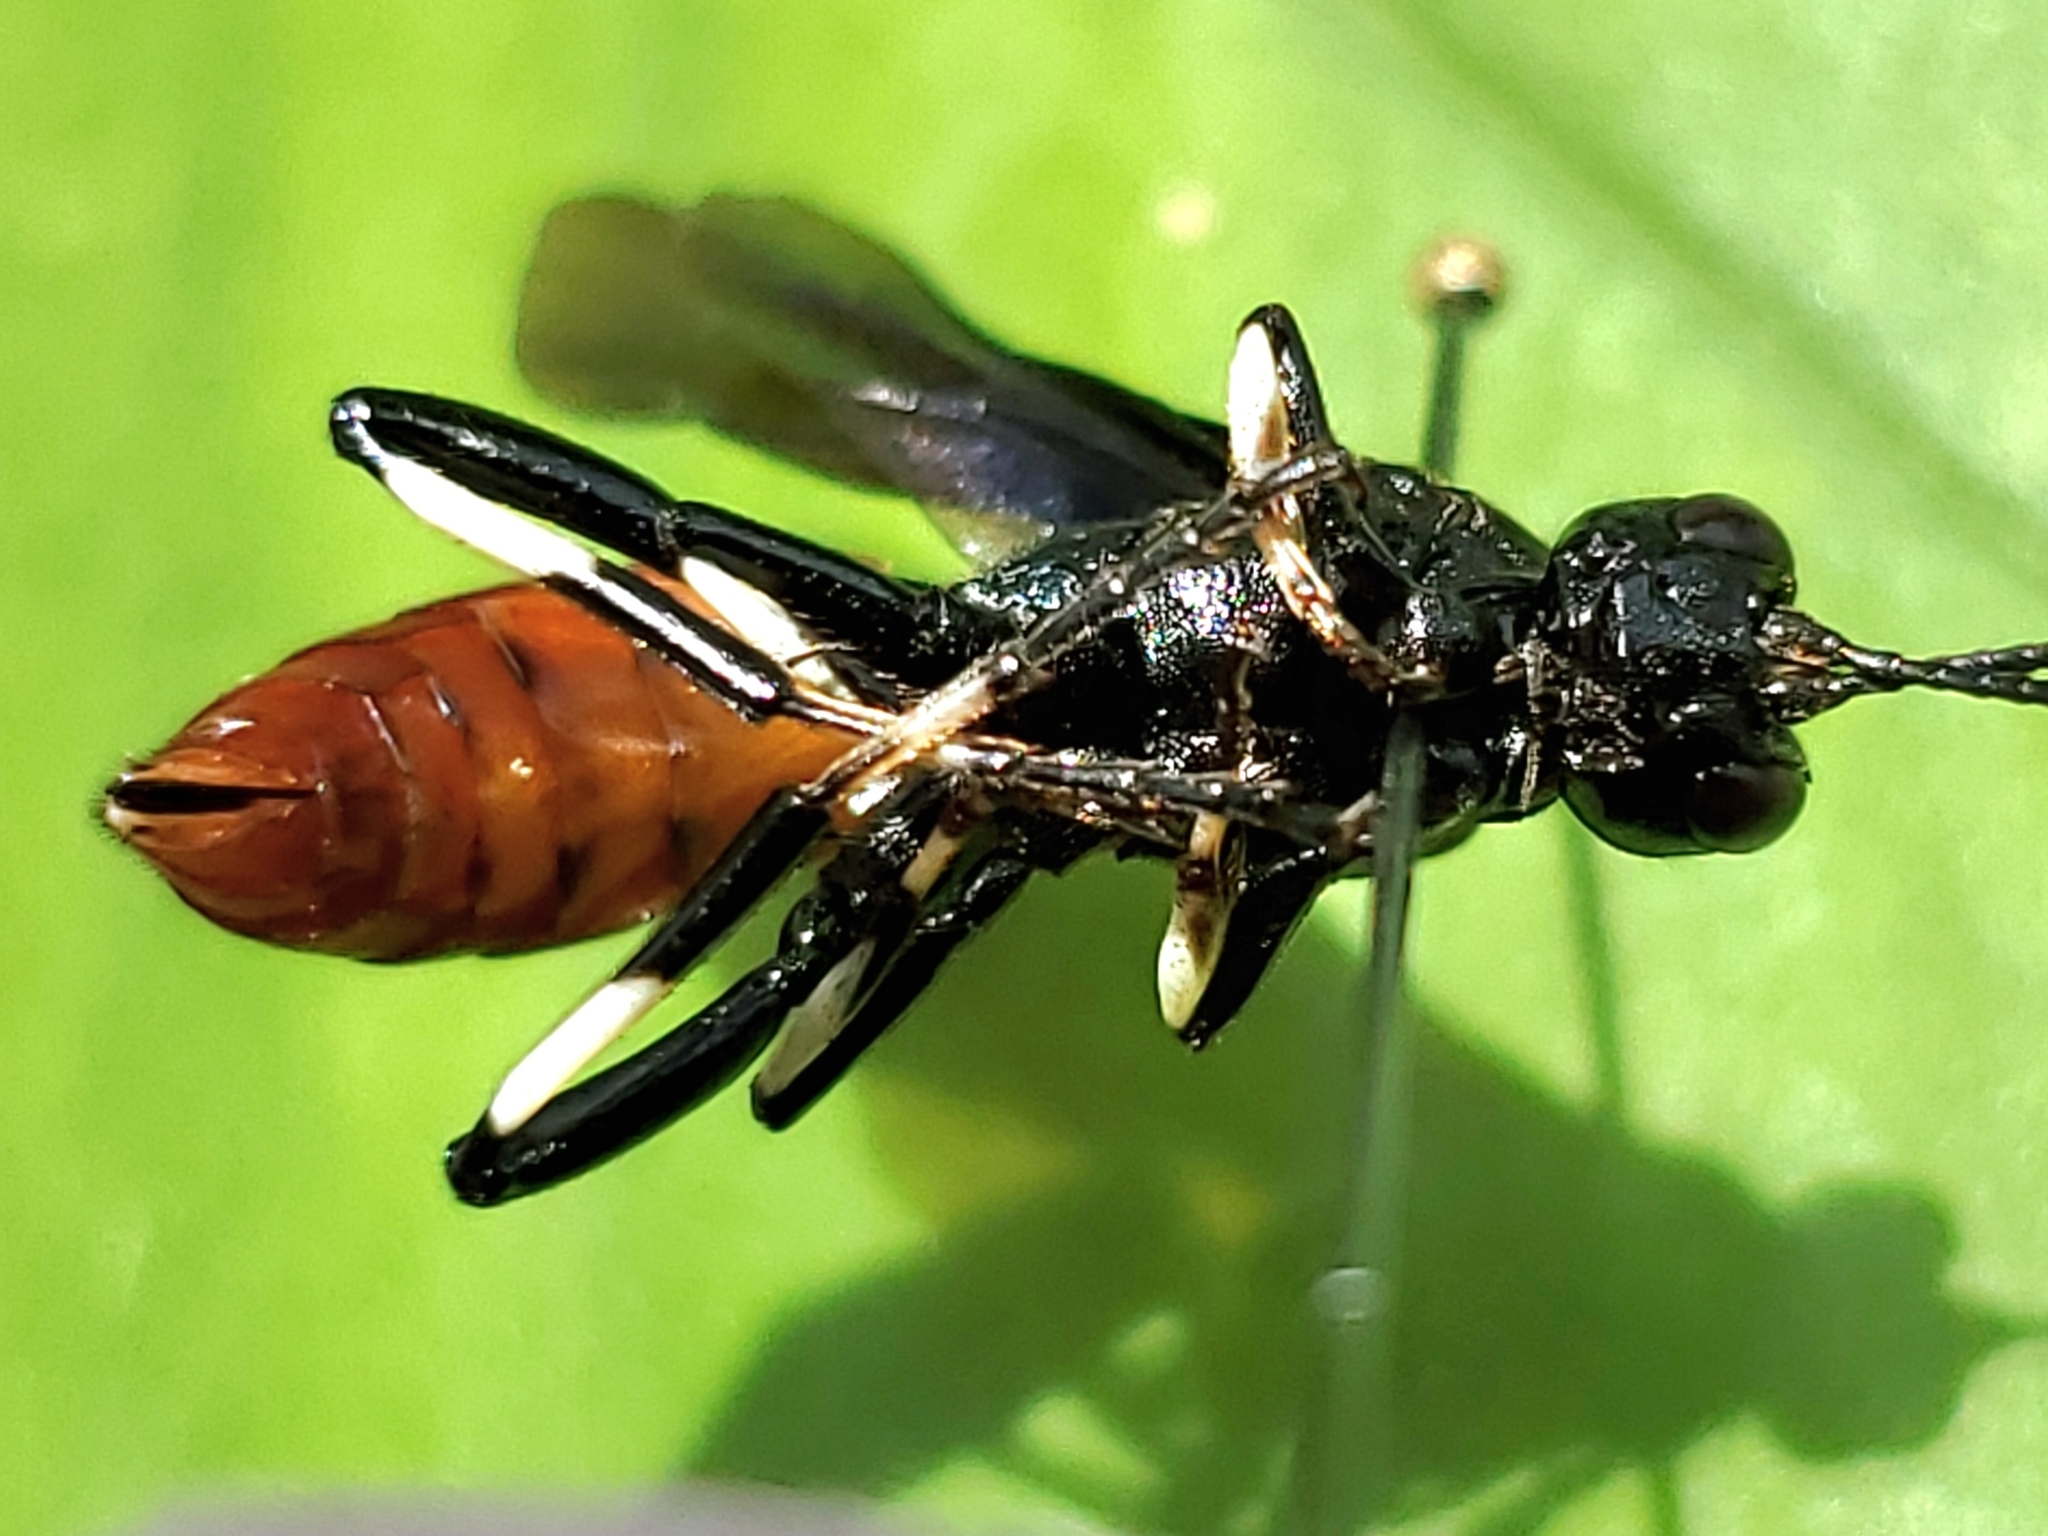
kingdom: Animalia
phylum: Arthropoda
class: Insecta
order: Hymenoptera
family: Ichneumonidae
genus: Ichneumon
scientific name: Ichneumon devinctor
